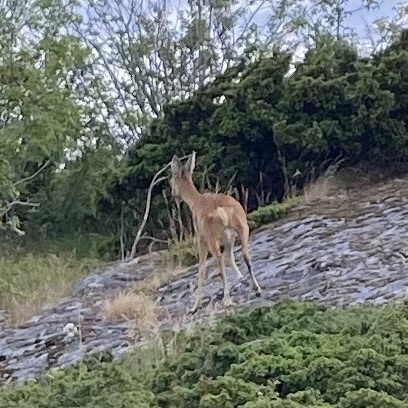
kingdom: Animalia
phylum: Chordata
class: Mammalia
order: Artiodactyla
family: Cervidae
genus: Capreolus
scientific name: Capreolus capreolus
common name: Western roe deer
